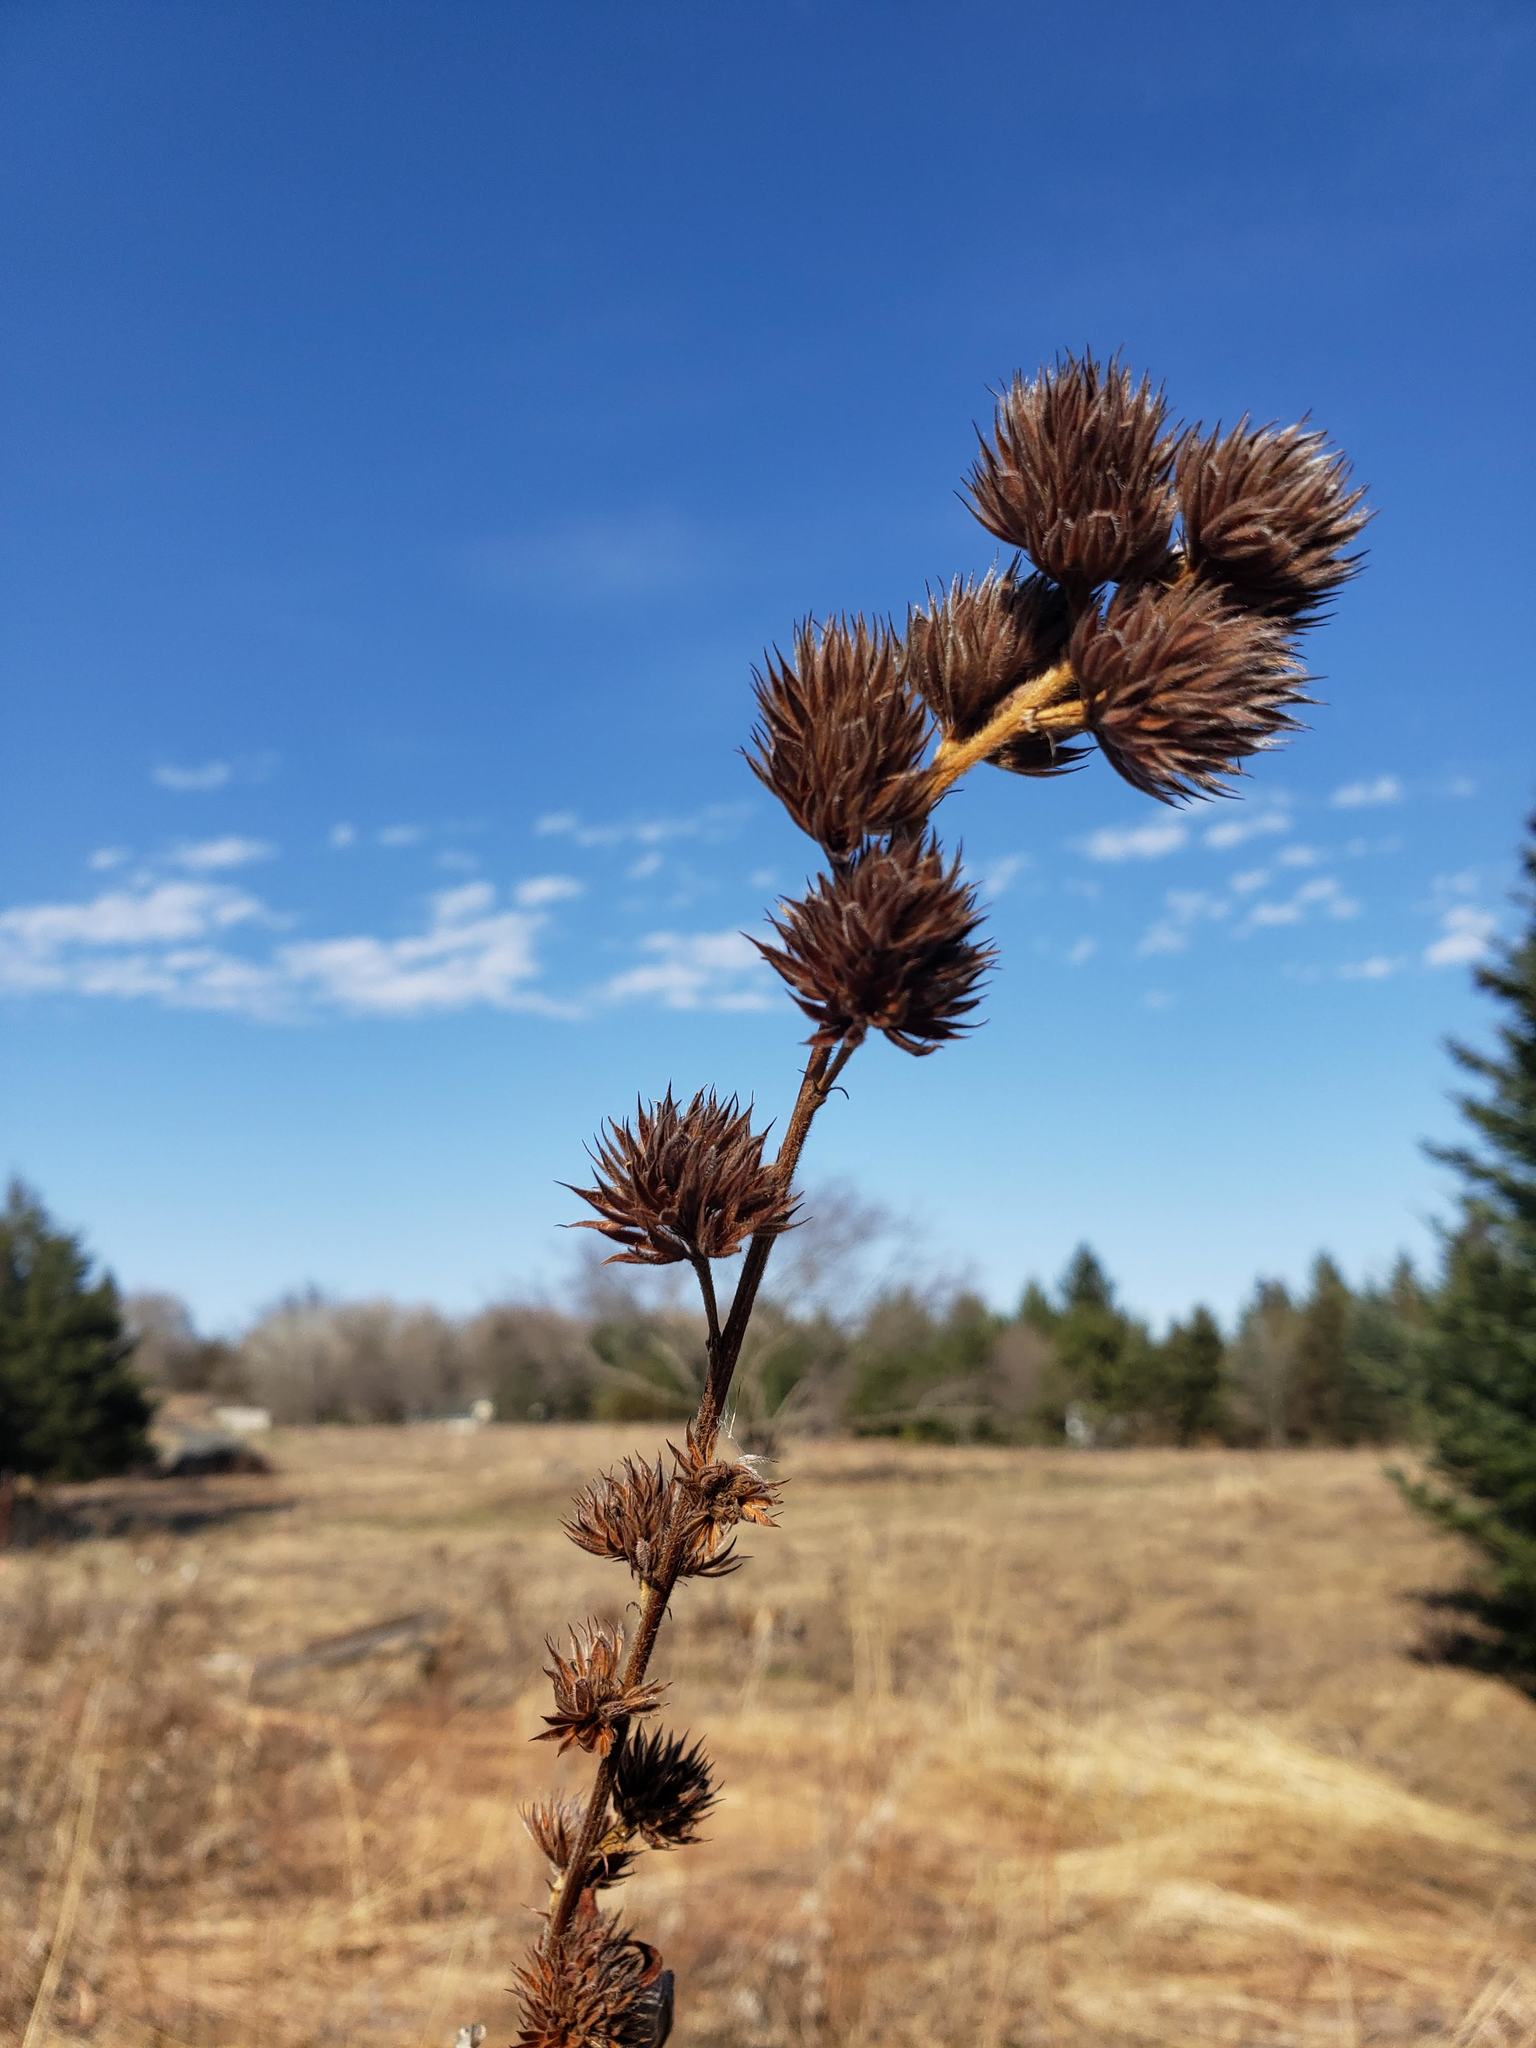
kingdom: Plantae
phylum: Tracheophyta
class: Magnoliopsida
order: Fabales
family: Fabaceae
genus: Lespedeza
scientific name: Lespedeza capitata
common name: Dusty clover
